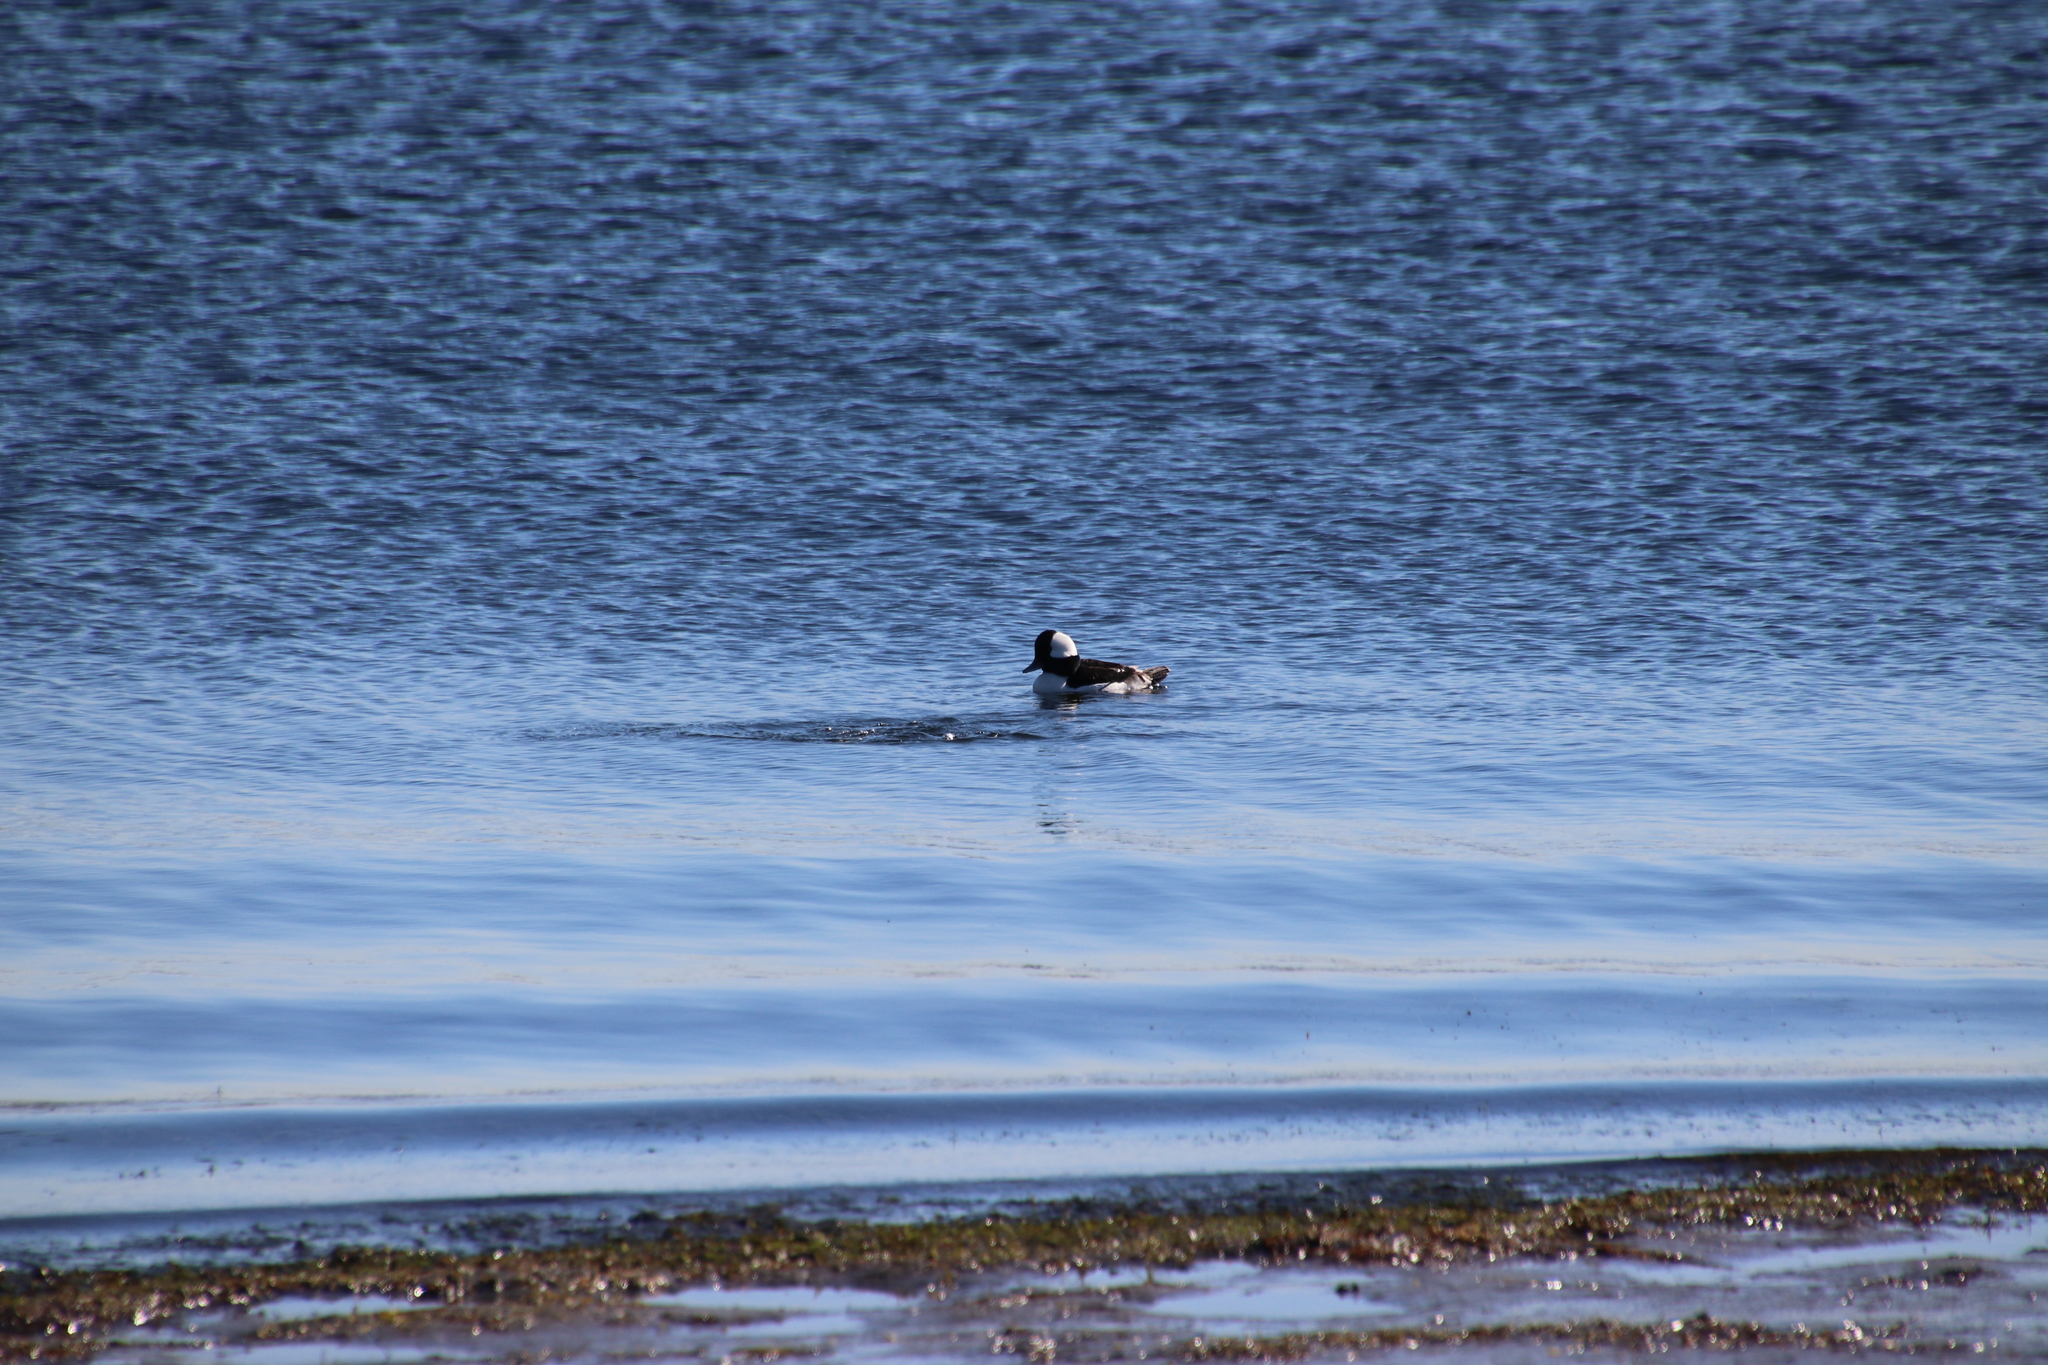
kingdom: Animalia
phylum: Chordata
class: Aves
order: Anseriformes
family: Anatidae
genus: Bucephala
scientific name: Bucephala albeola
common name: Bufflehead
